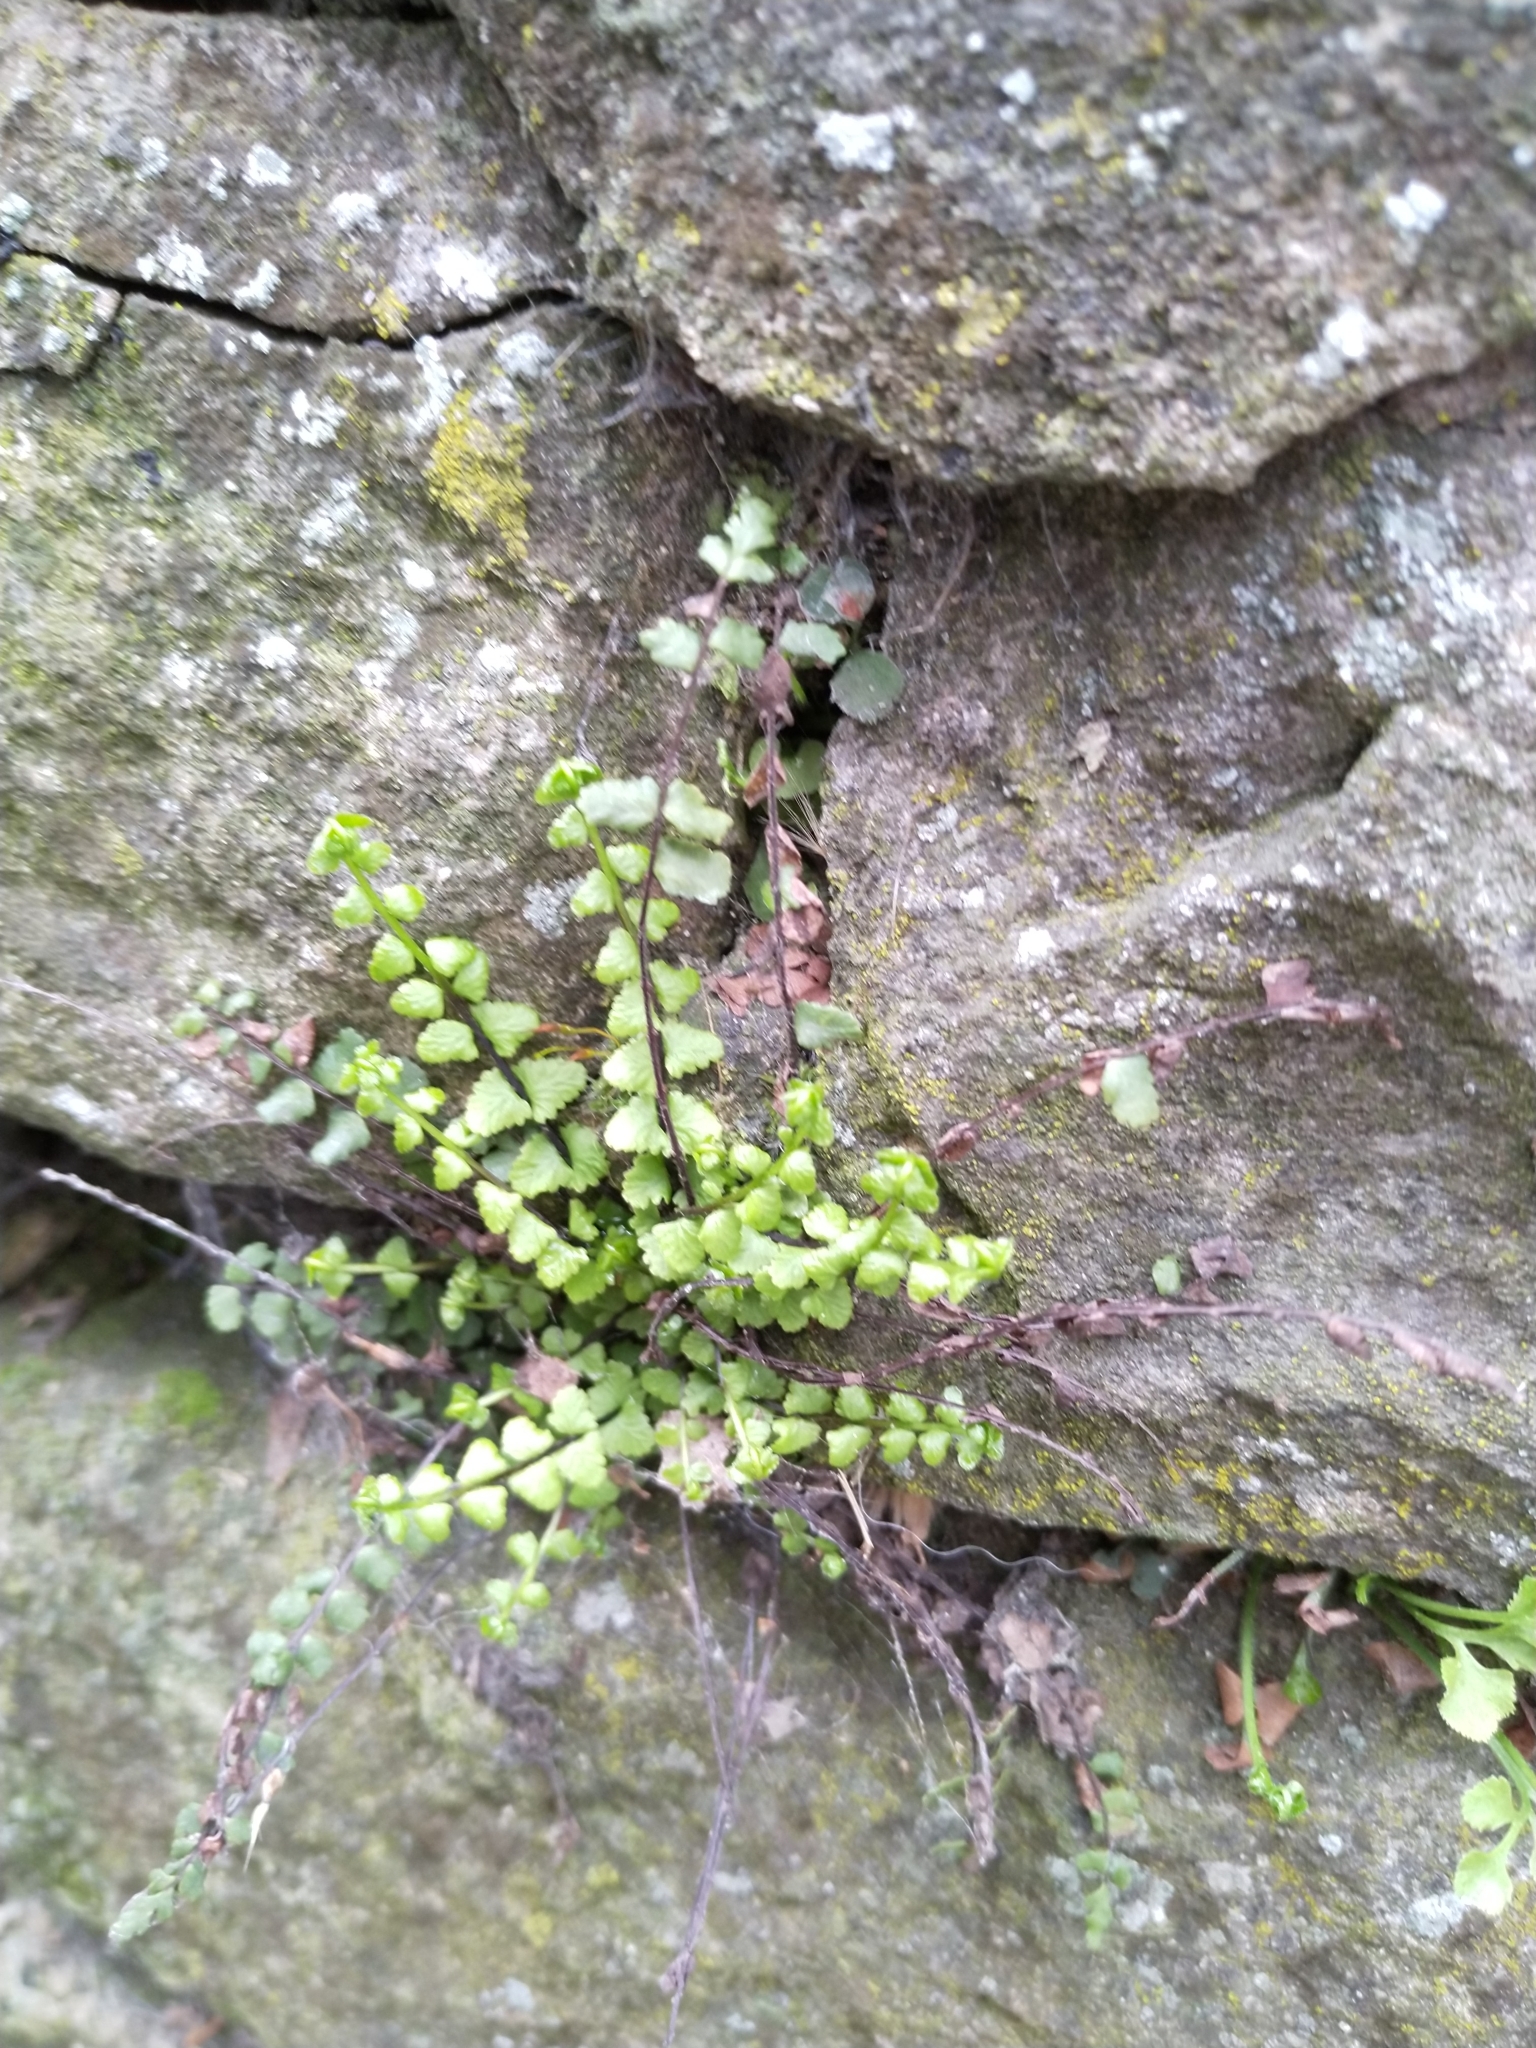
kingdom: Plantae
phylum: Tracheophyta
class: Polypodiopsida
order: Polypodiales
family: Aspleniaceae
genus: Asplenium
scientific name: Asplenium trichomanes
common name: Maidenhair spleenwort
